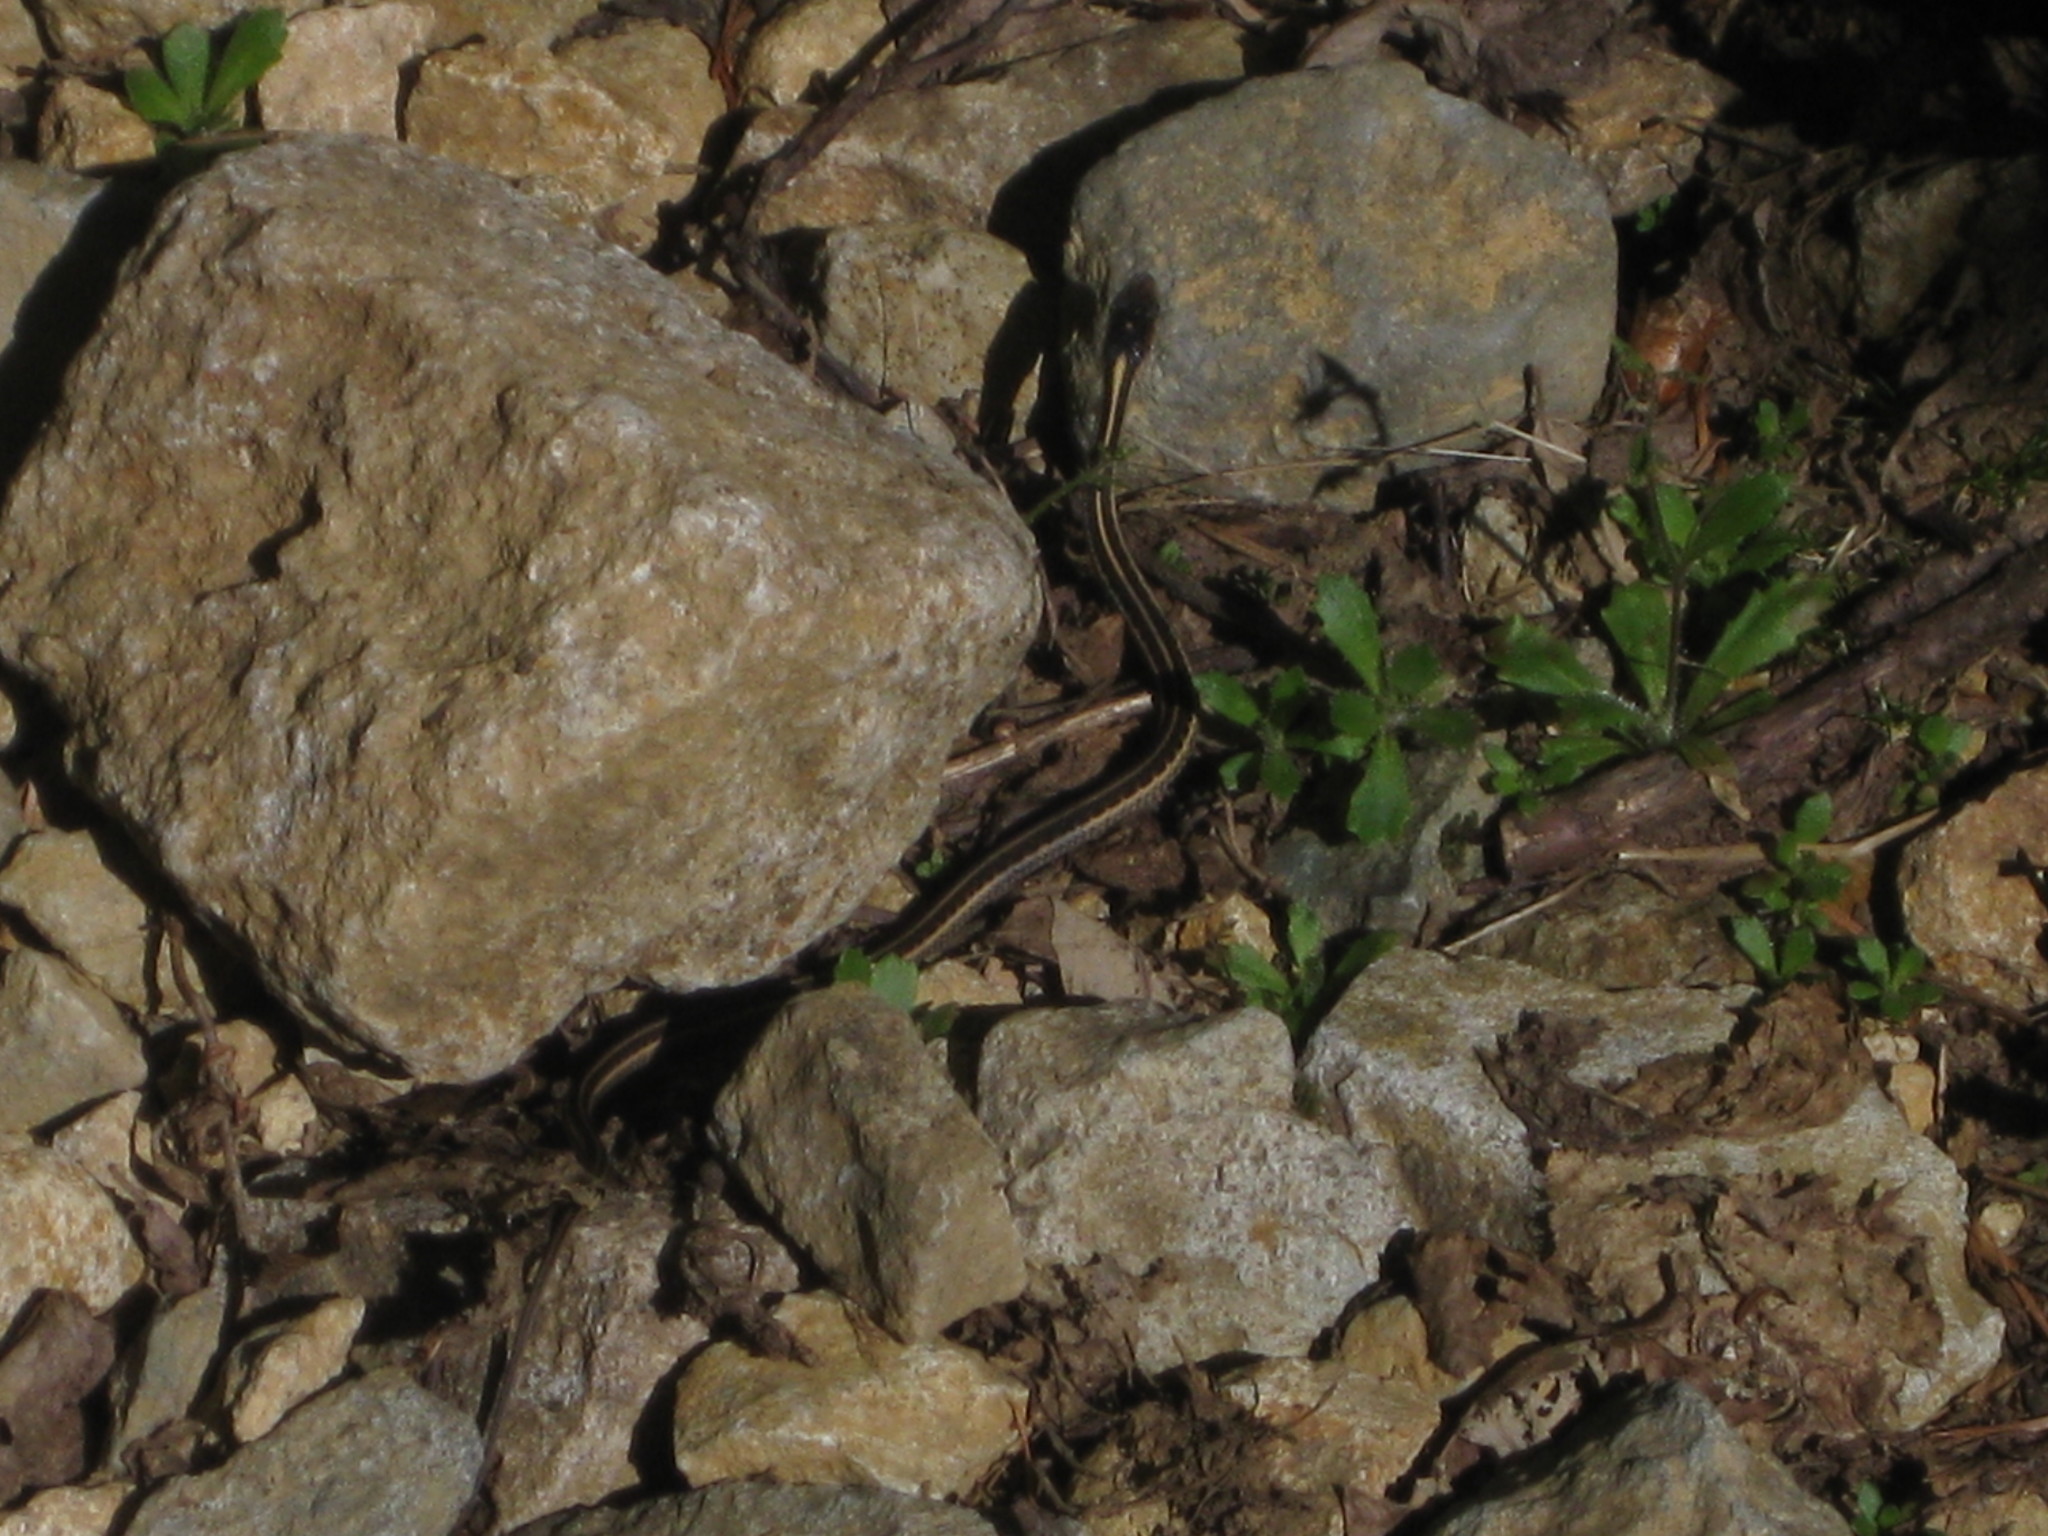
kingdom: Animalia
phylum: Chordata
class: Squamata
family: Colubridae
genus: Thamnophis
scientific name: Thamnophis
